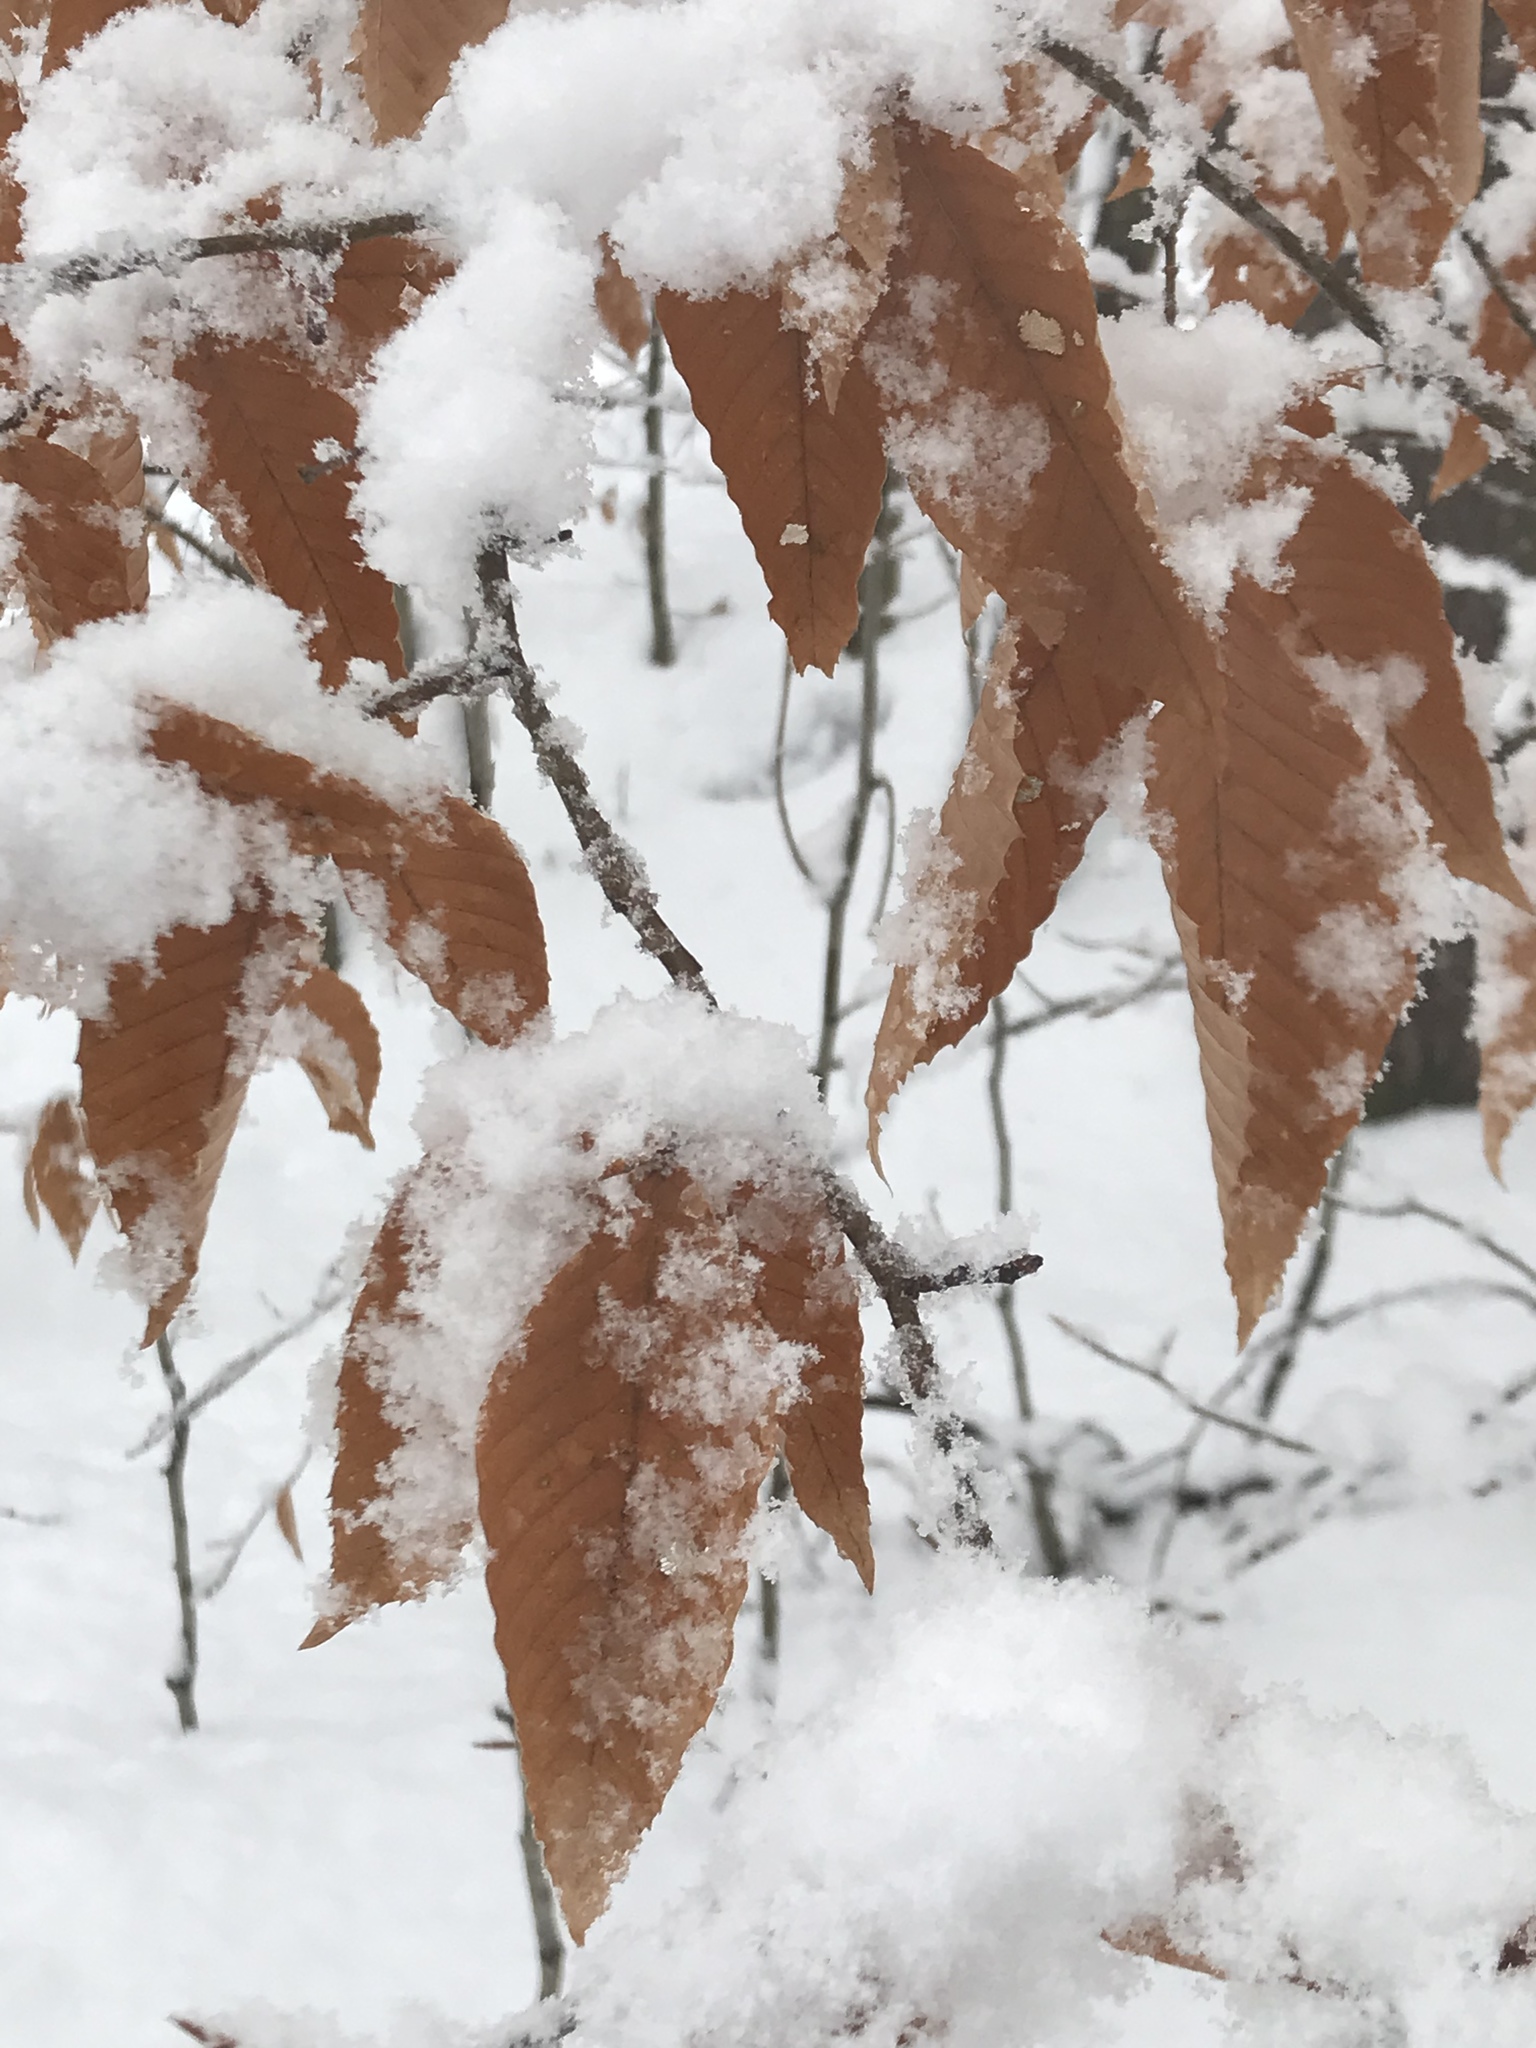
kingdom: Plantae
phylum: Tracheophyta
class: Magnoliopsida
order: Fagales
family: Fagaceae
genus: Fagus
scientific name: Fagus grandifolia
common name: American beech
